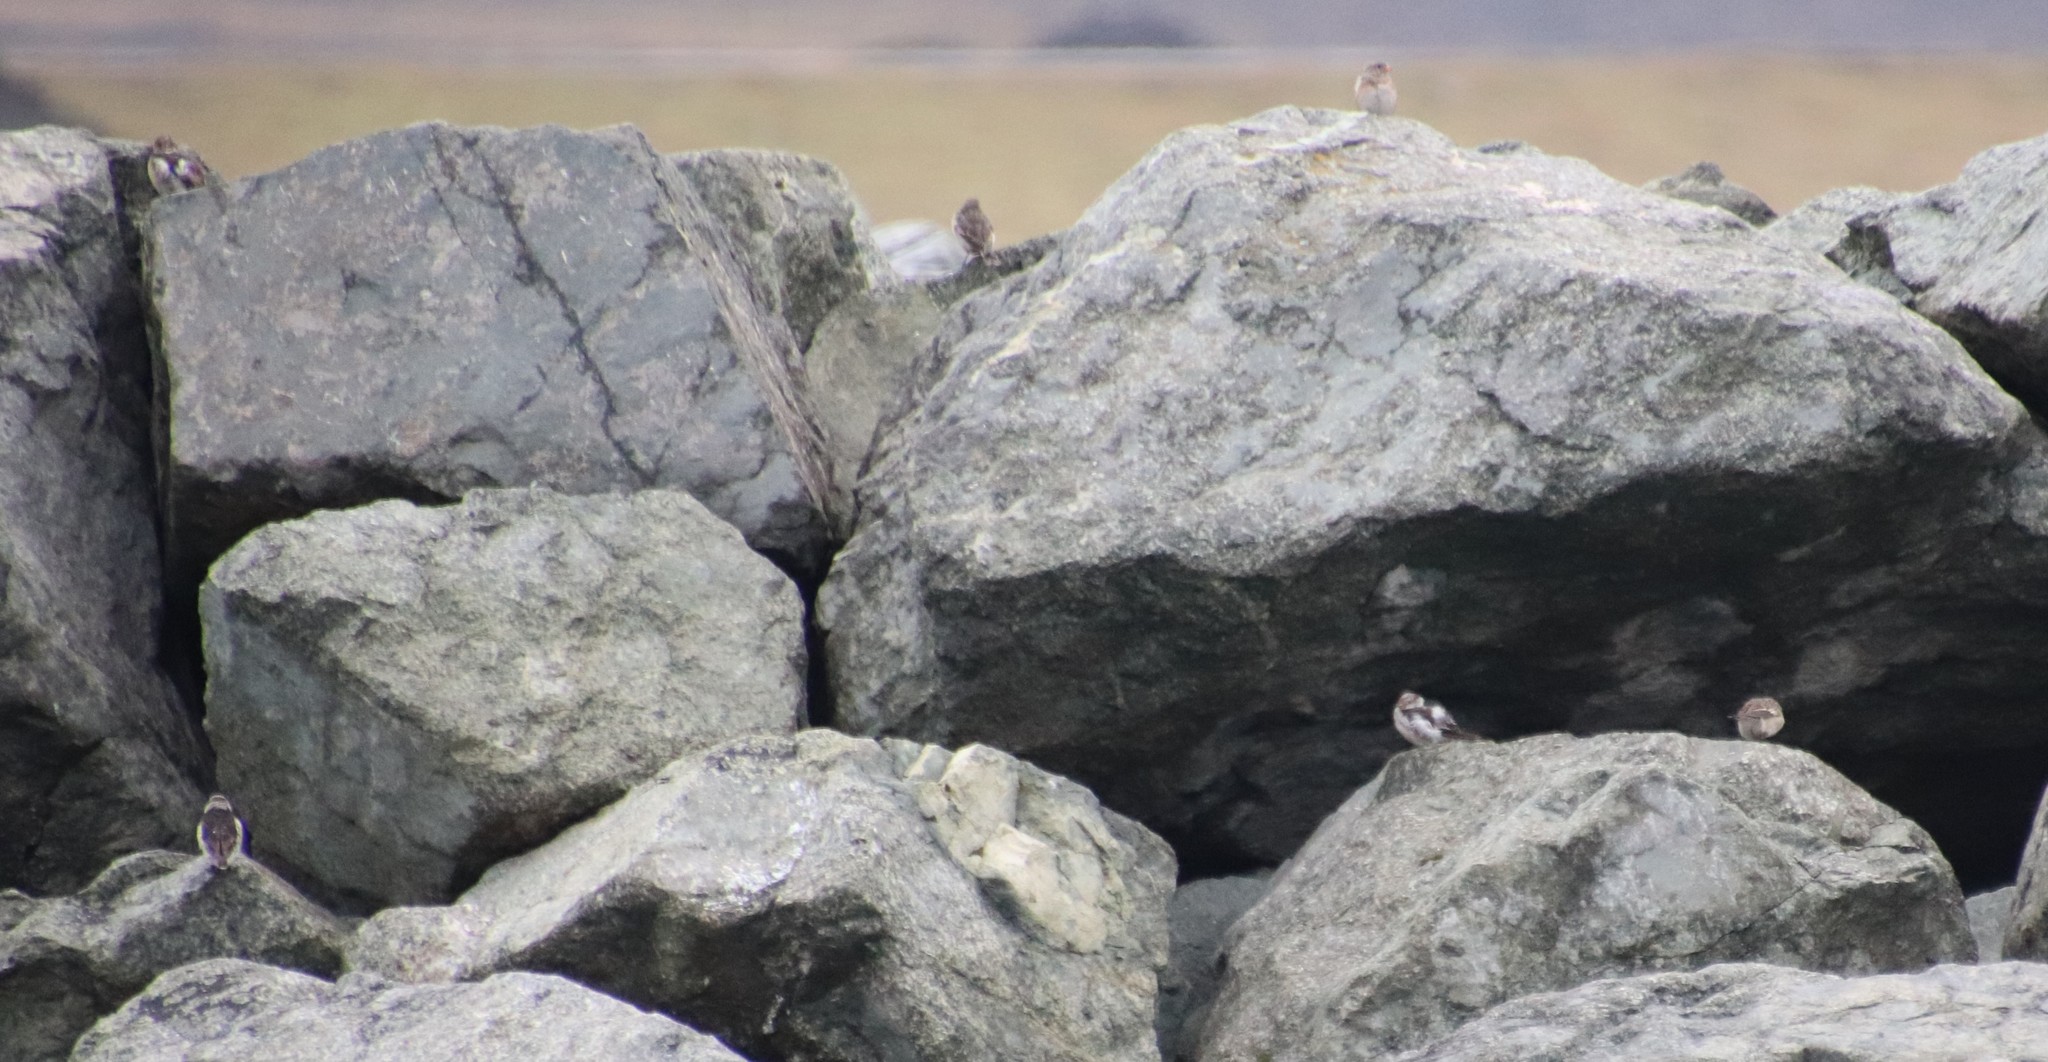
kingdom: Animalia
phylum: Chordata
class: Aves
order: Passeriformes
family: Calcariidae
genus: Plectrophenax
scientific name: Plectrophenax nivalis
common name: Snow bunting
